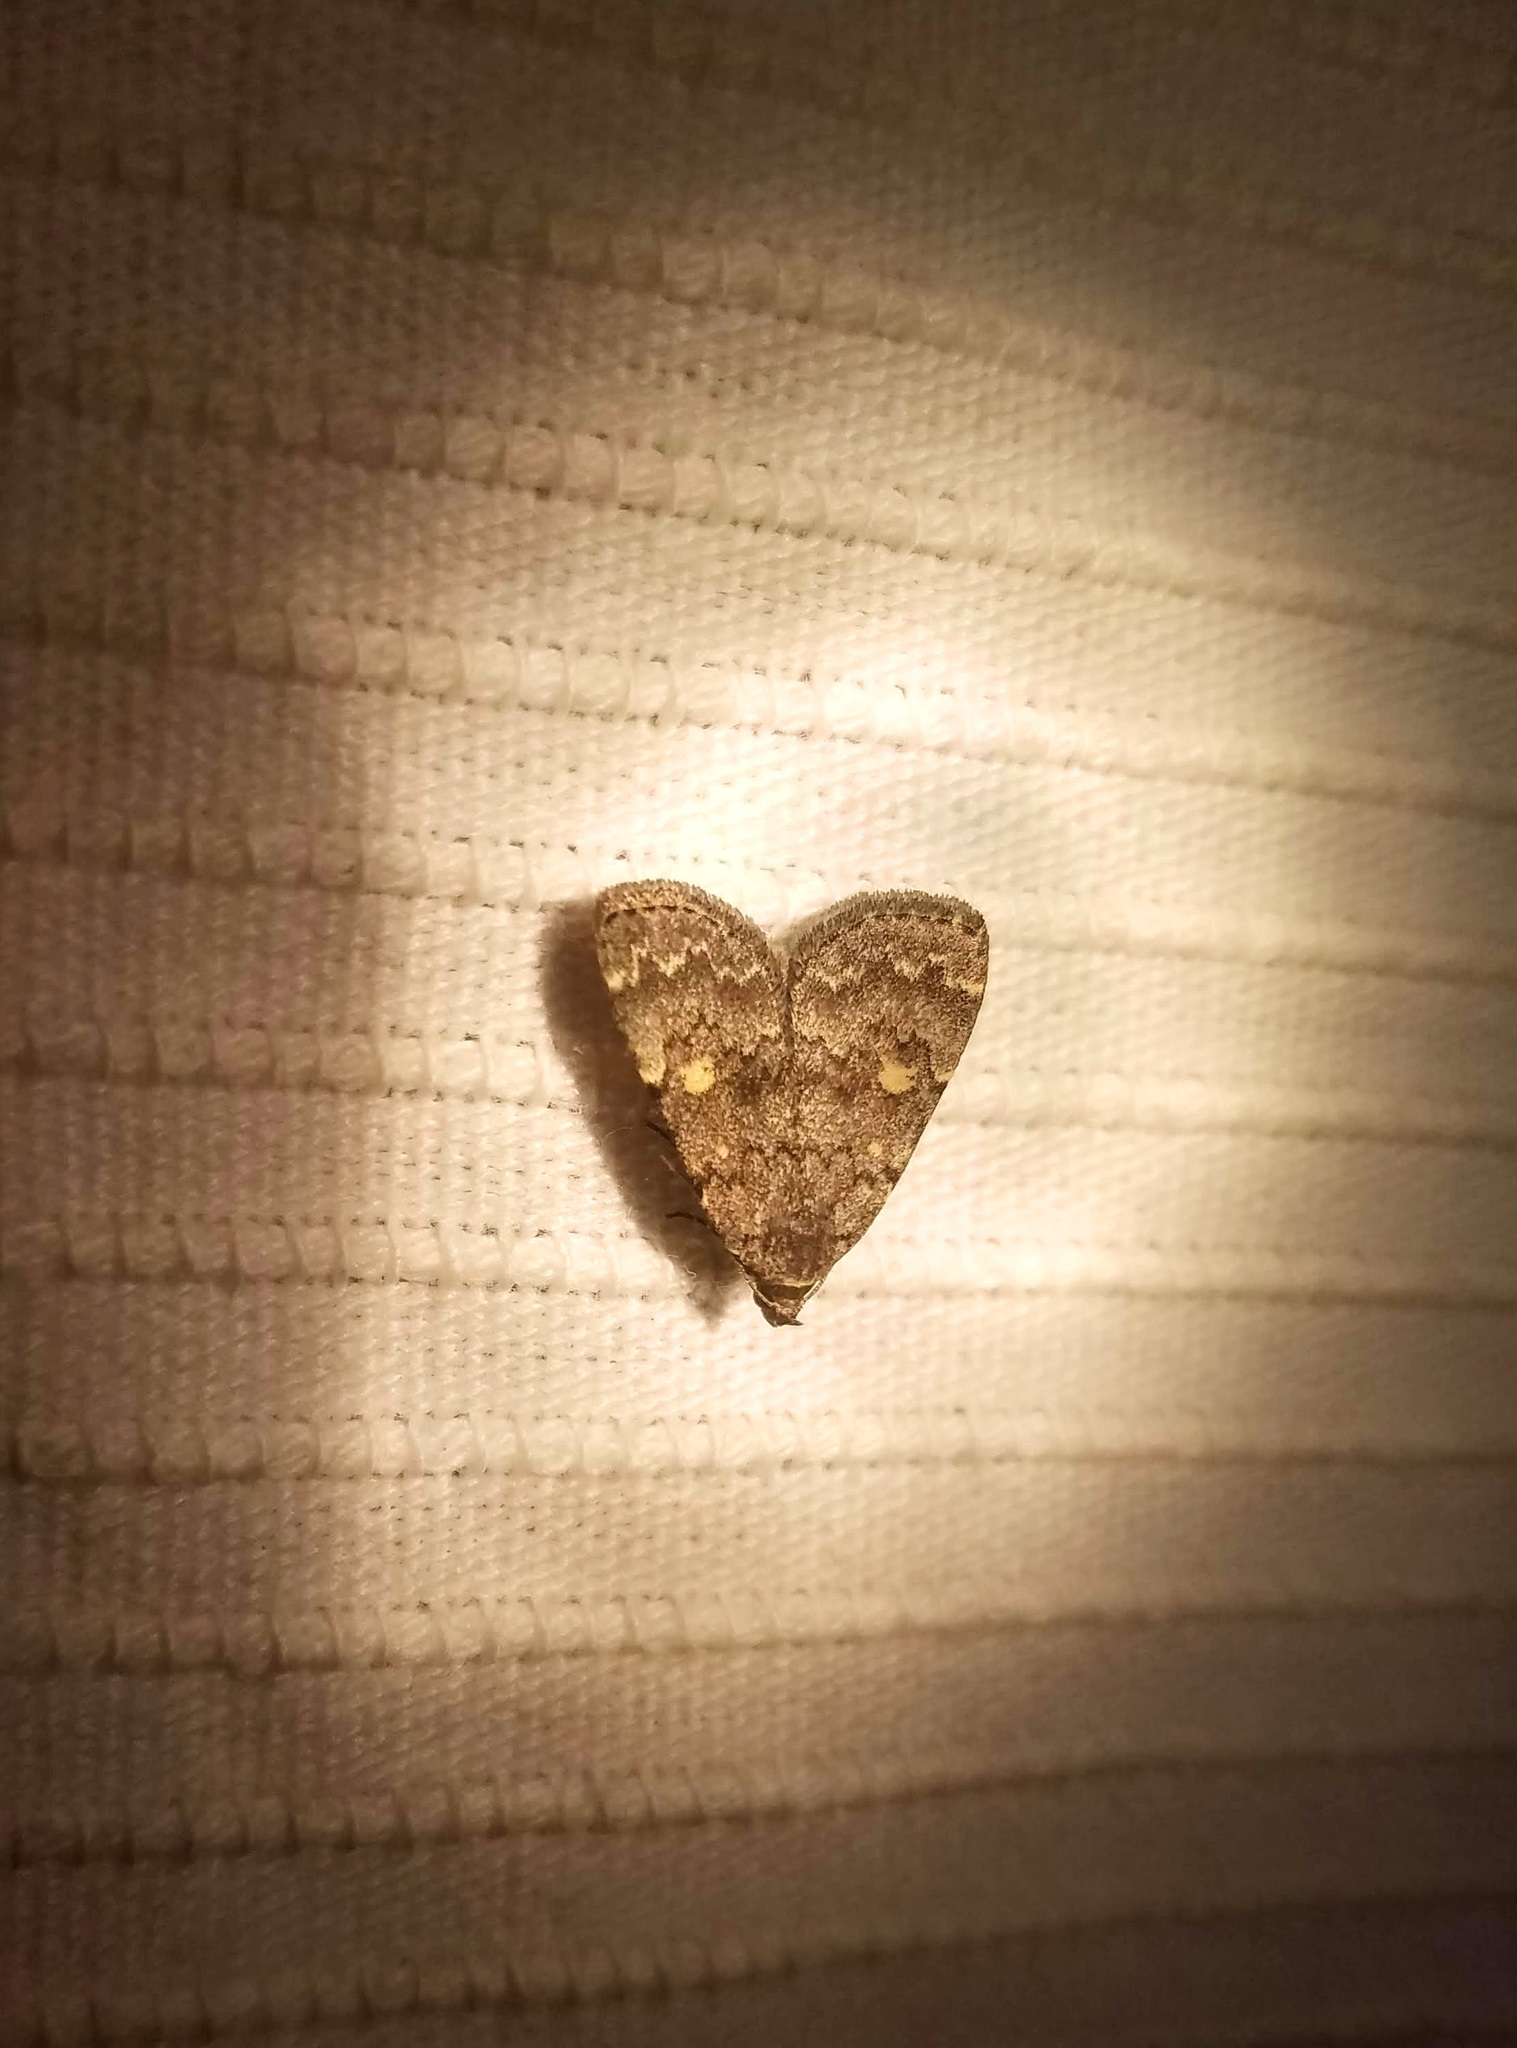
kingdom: Animalia
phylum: Arthropoda
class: Insecta
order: Lepidoptera
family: Erebidae
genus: Idia
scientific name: Idia aemula
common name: Common idia moth
